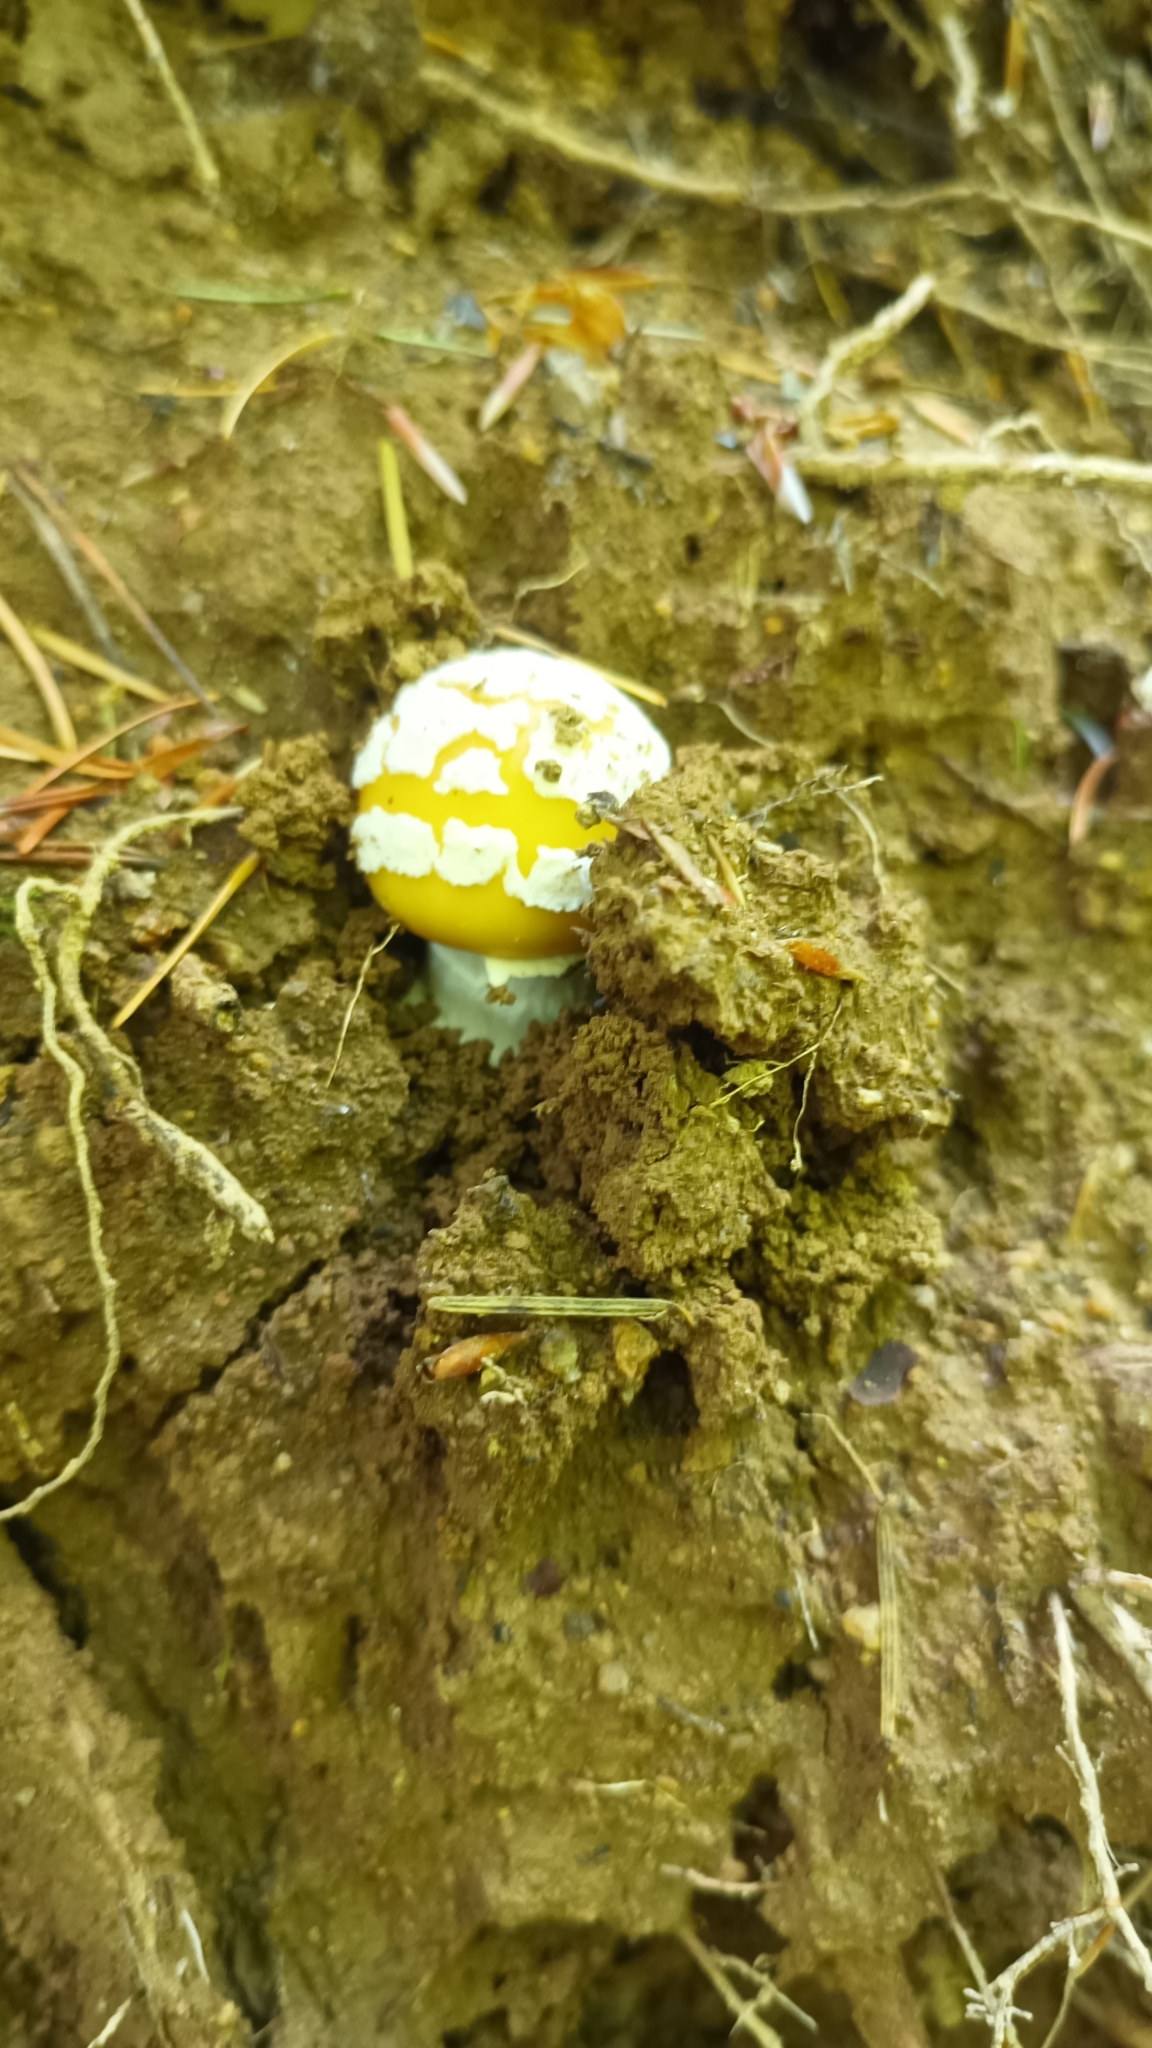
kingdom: Fungi
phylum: Basidiomycota
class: Agaricomycetes
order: Agaricales
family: Amanitaceae
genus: Amanita
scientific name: Amanita gemmata
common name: Jewelled amanita
